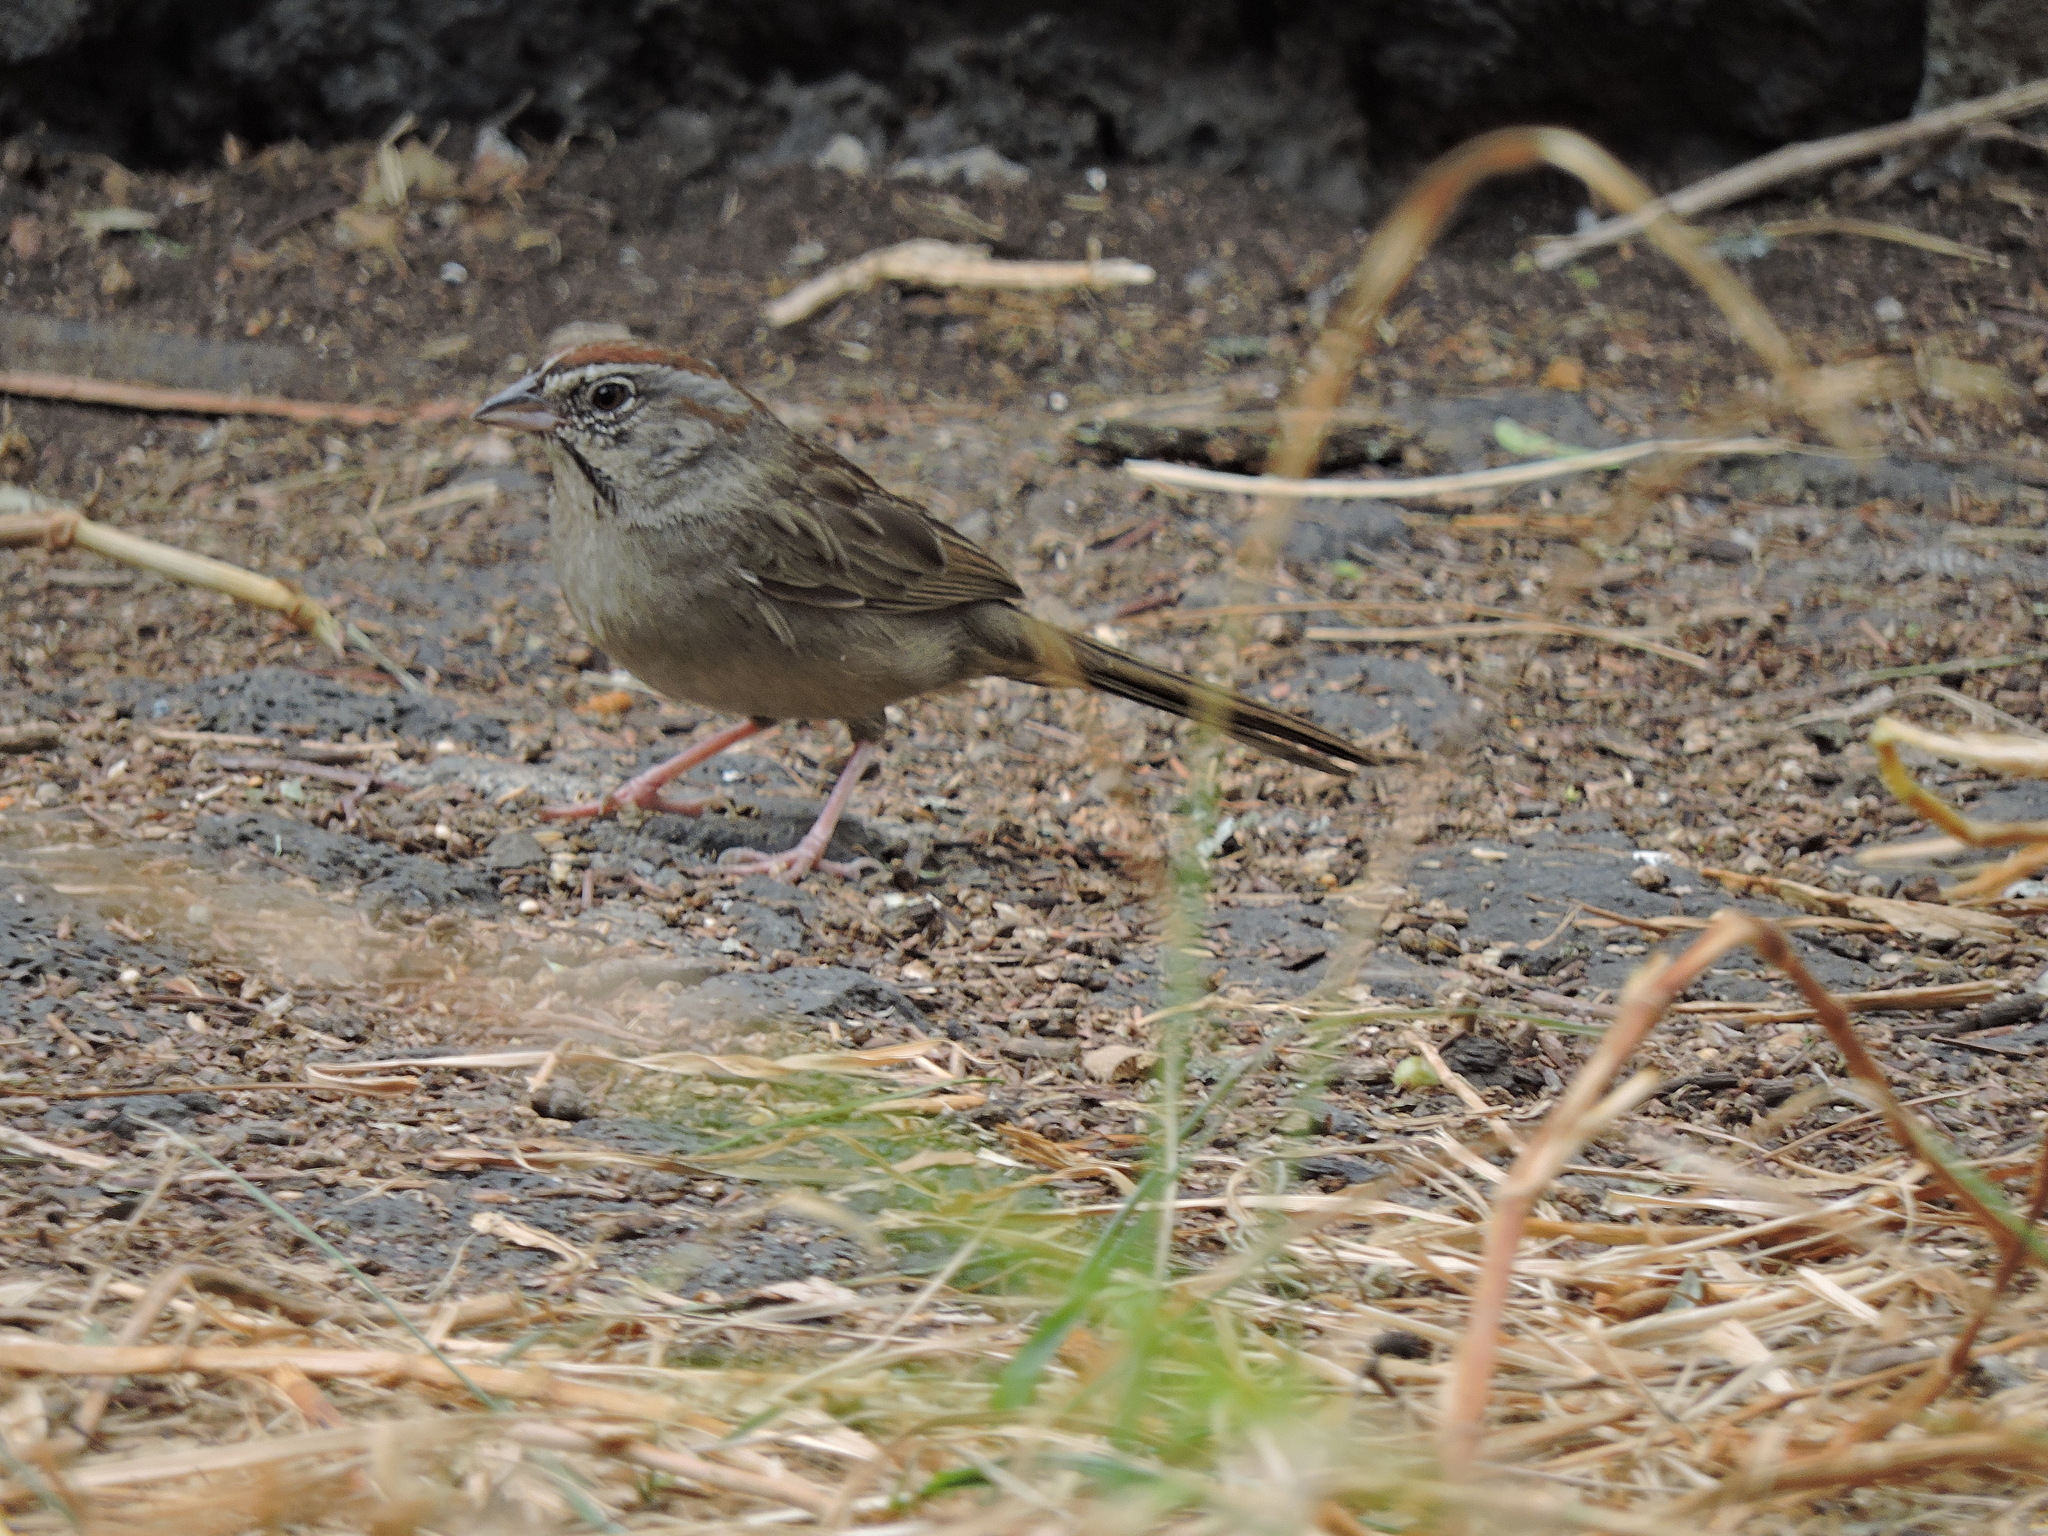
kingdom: Animalia
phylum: Chordata
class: Aves
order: Passeriformes
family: Passerellidae
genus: Aimophila
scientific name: Aimophila ruficeps
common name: Rufous-crowned sparrow
